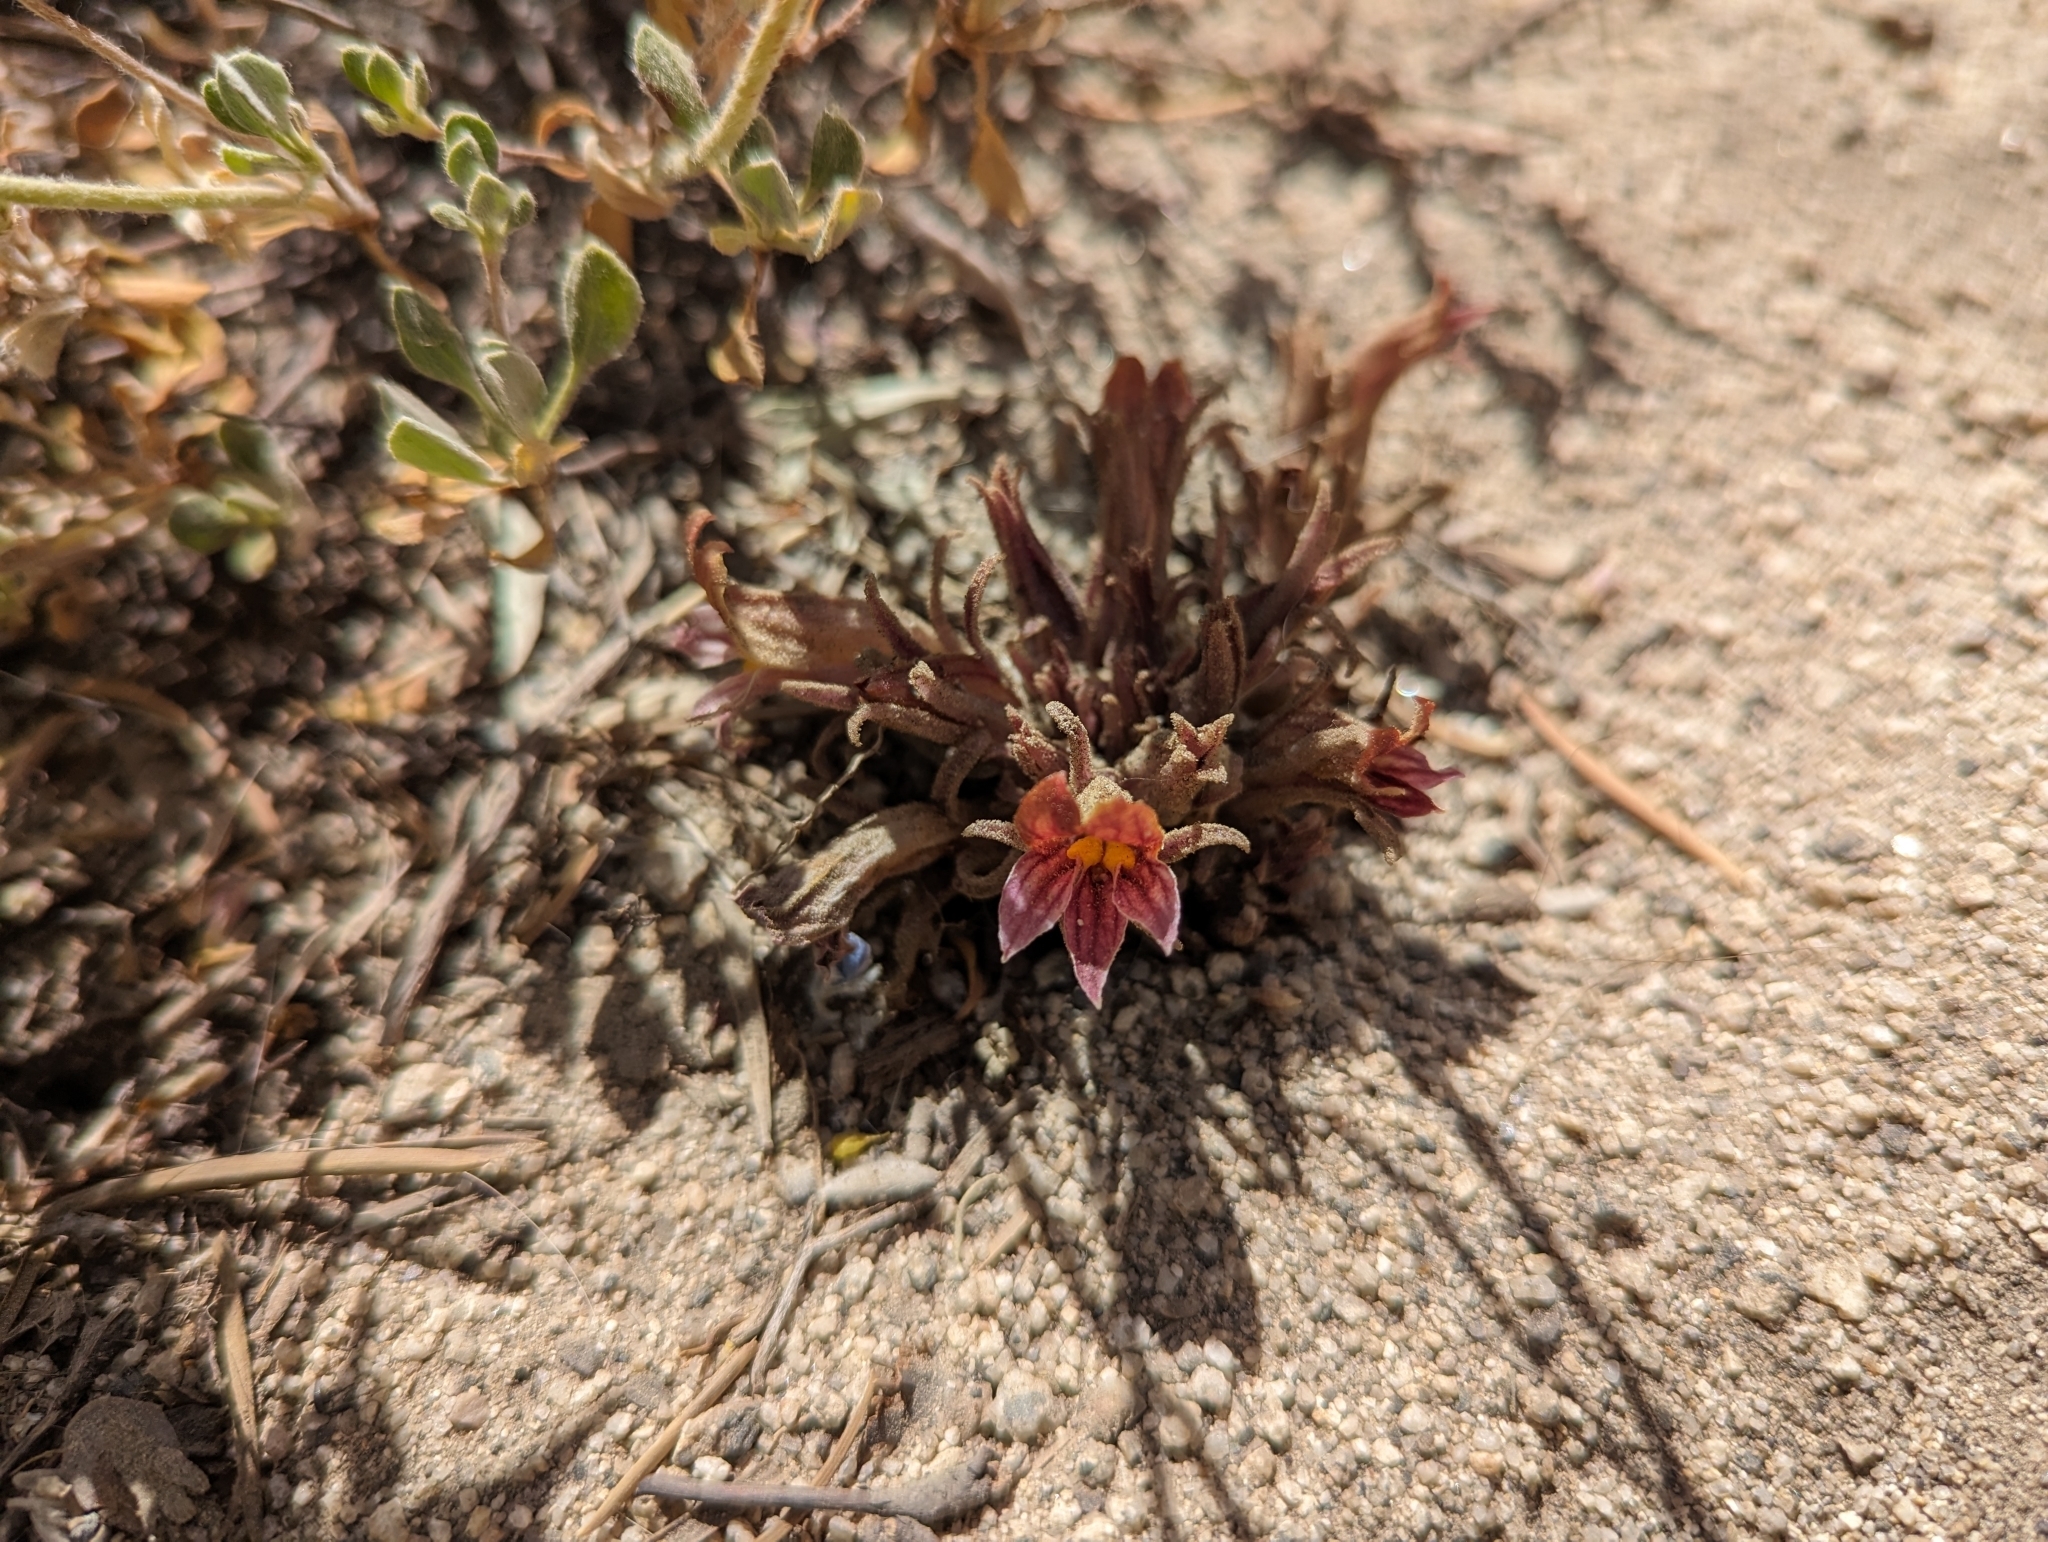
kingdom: Plantae
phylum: Tracheophyta
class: Magnoliopsida
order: Lamiales
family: Orobanchaceae
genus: Aphyllon
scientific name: Aphyllon corymbosum
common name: Flat-top broomrape
